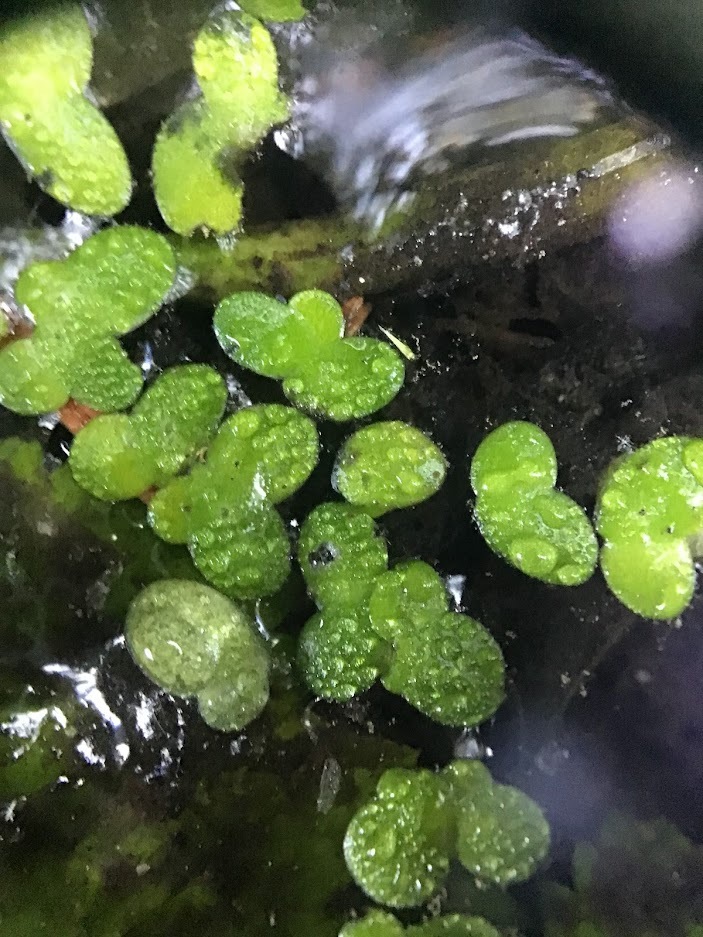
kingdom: Plantae
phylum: Tracheophyta
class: Liliopsida
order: Alismatales
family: Araceae
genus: Lemna
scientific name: Lemna minor
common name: Common duckweed
